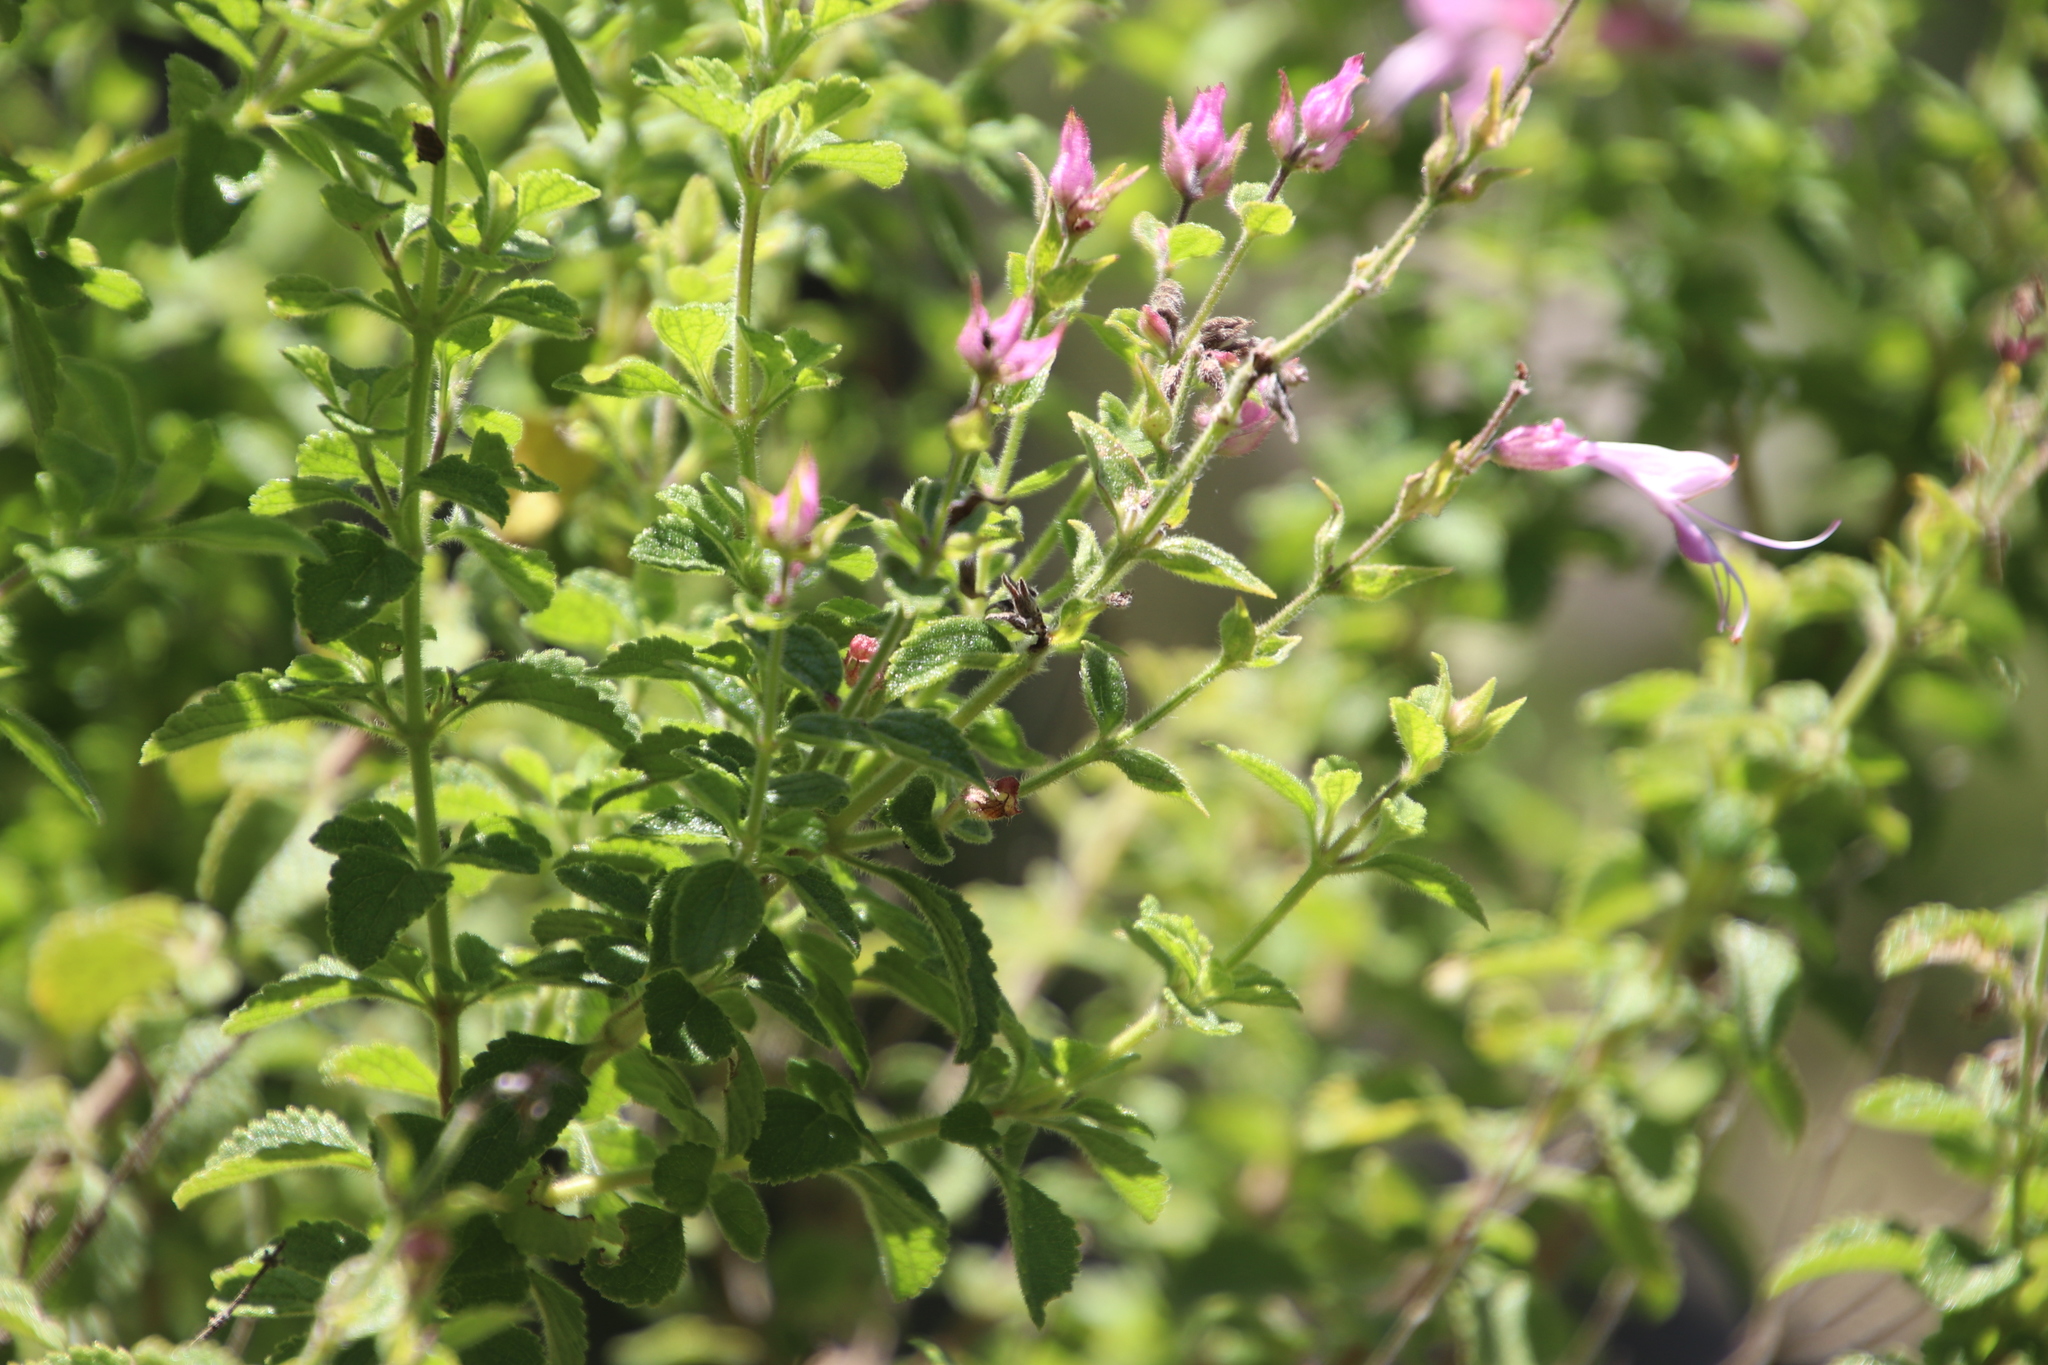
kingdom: Plantae
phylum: Tracheophyta
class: Magnoliopsida
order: Lamiales
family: Lamiaceae
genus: Syncolostemon
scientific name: Syncolostemon stalmansii
